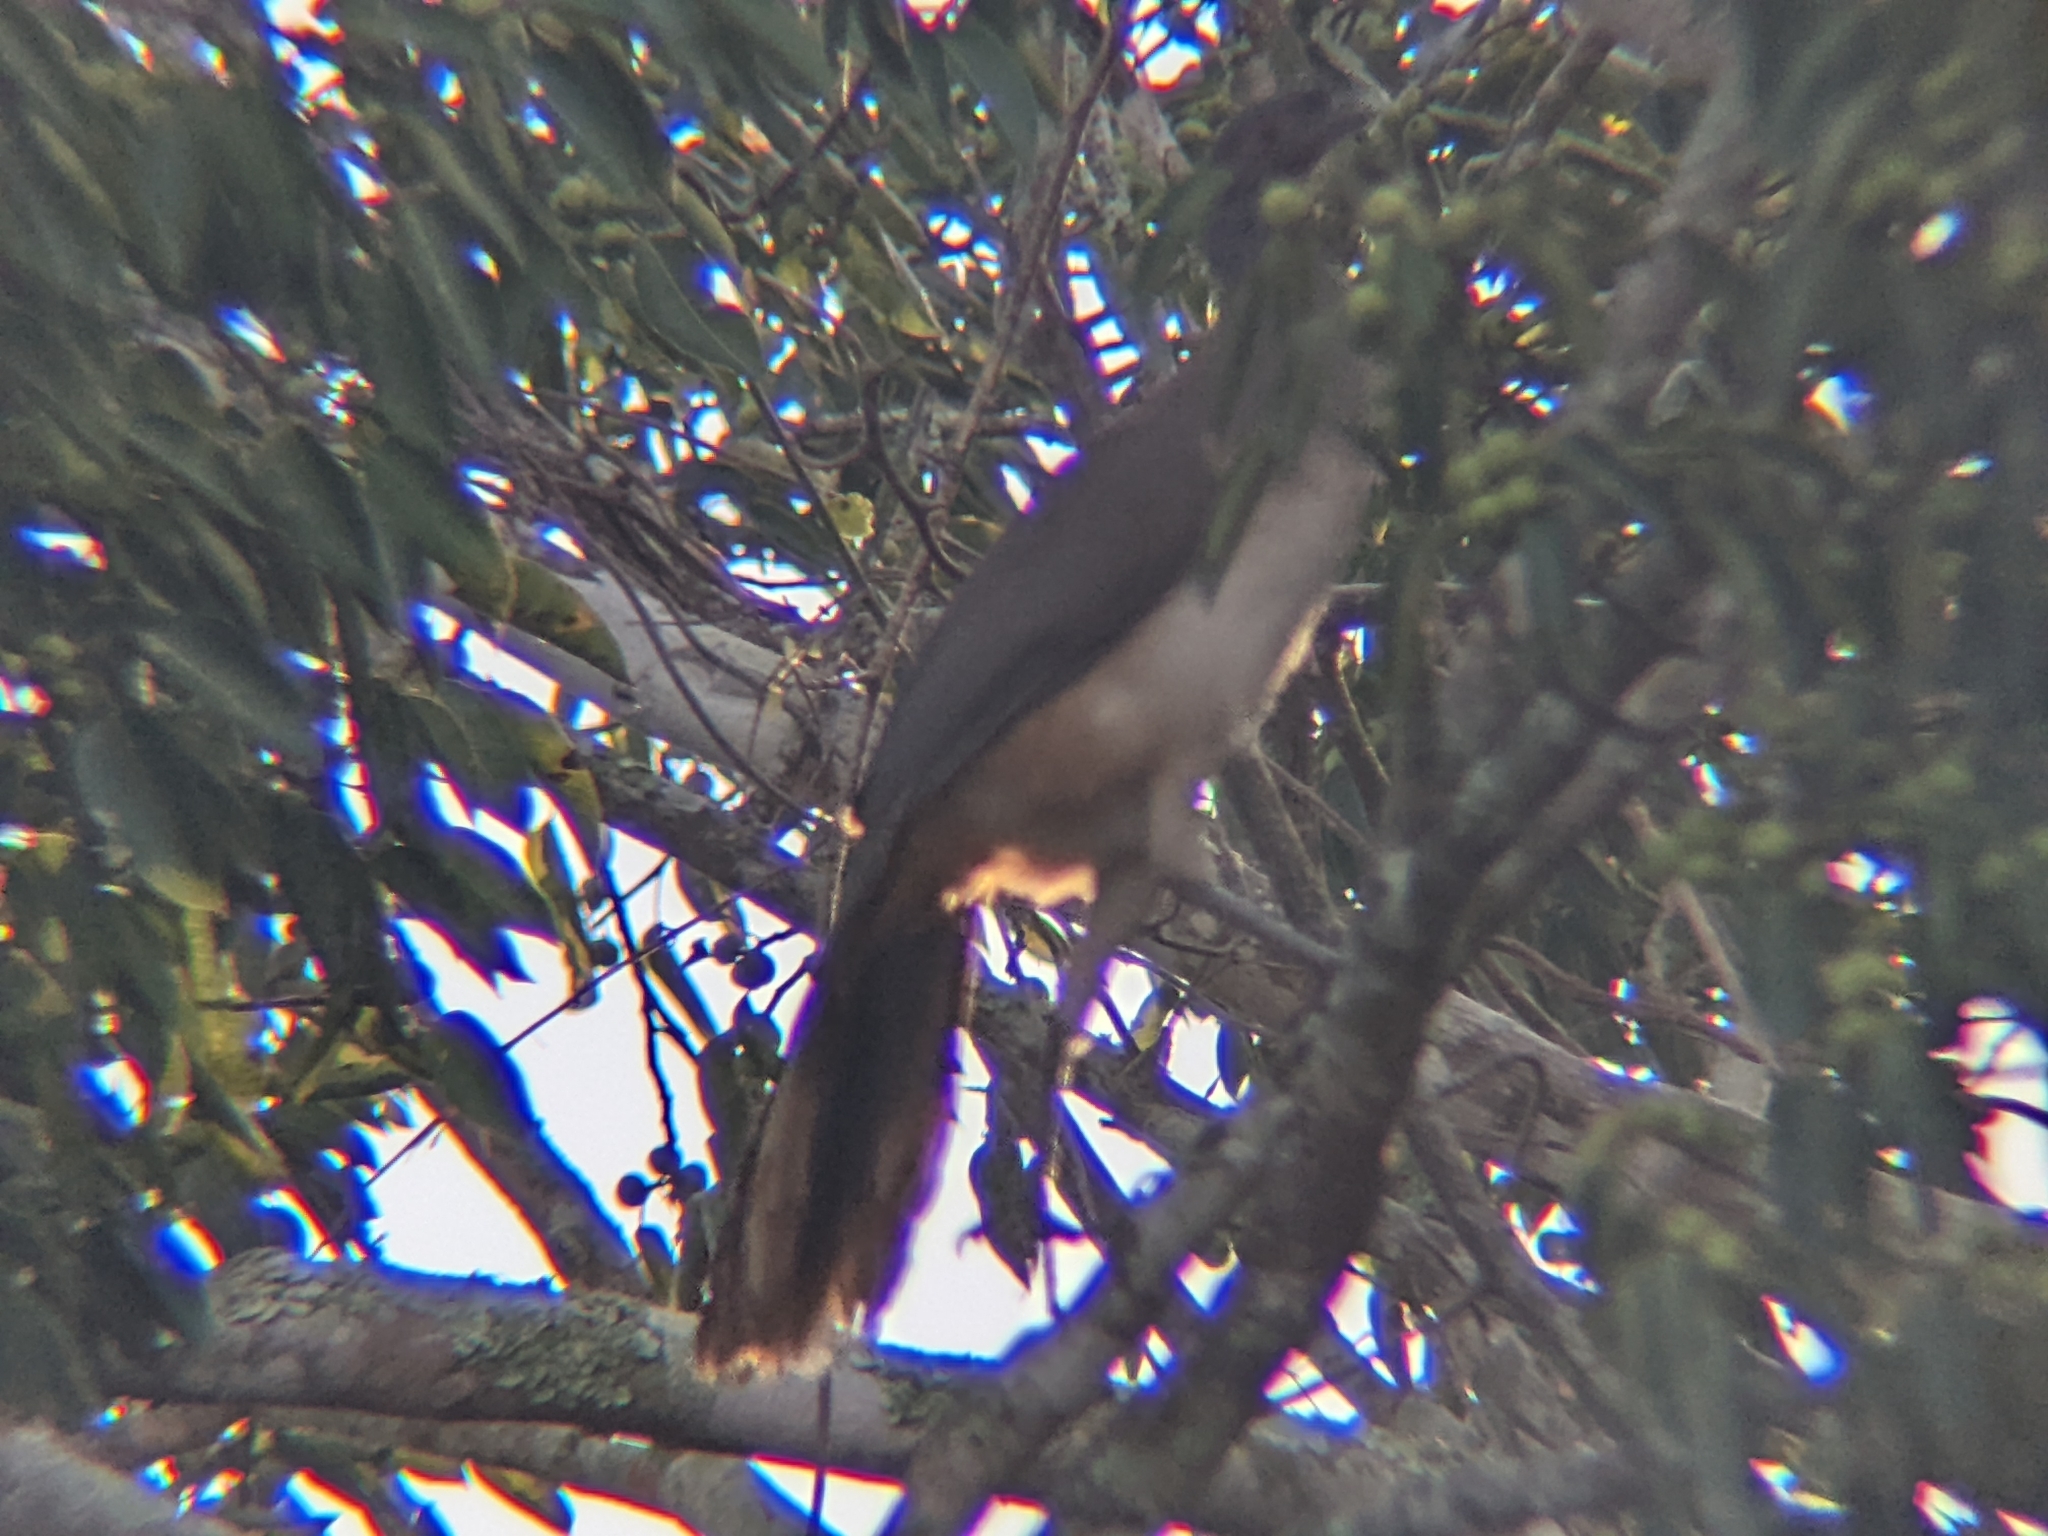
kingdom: Animalia
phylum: Chordata
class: Aves
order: Galliformes
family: Cracidae
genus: Ortalis
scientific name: Ortalis poliocephala
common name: West mexican chachalaca
